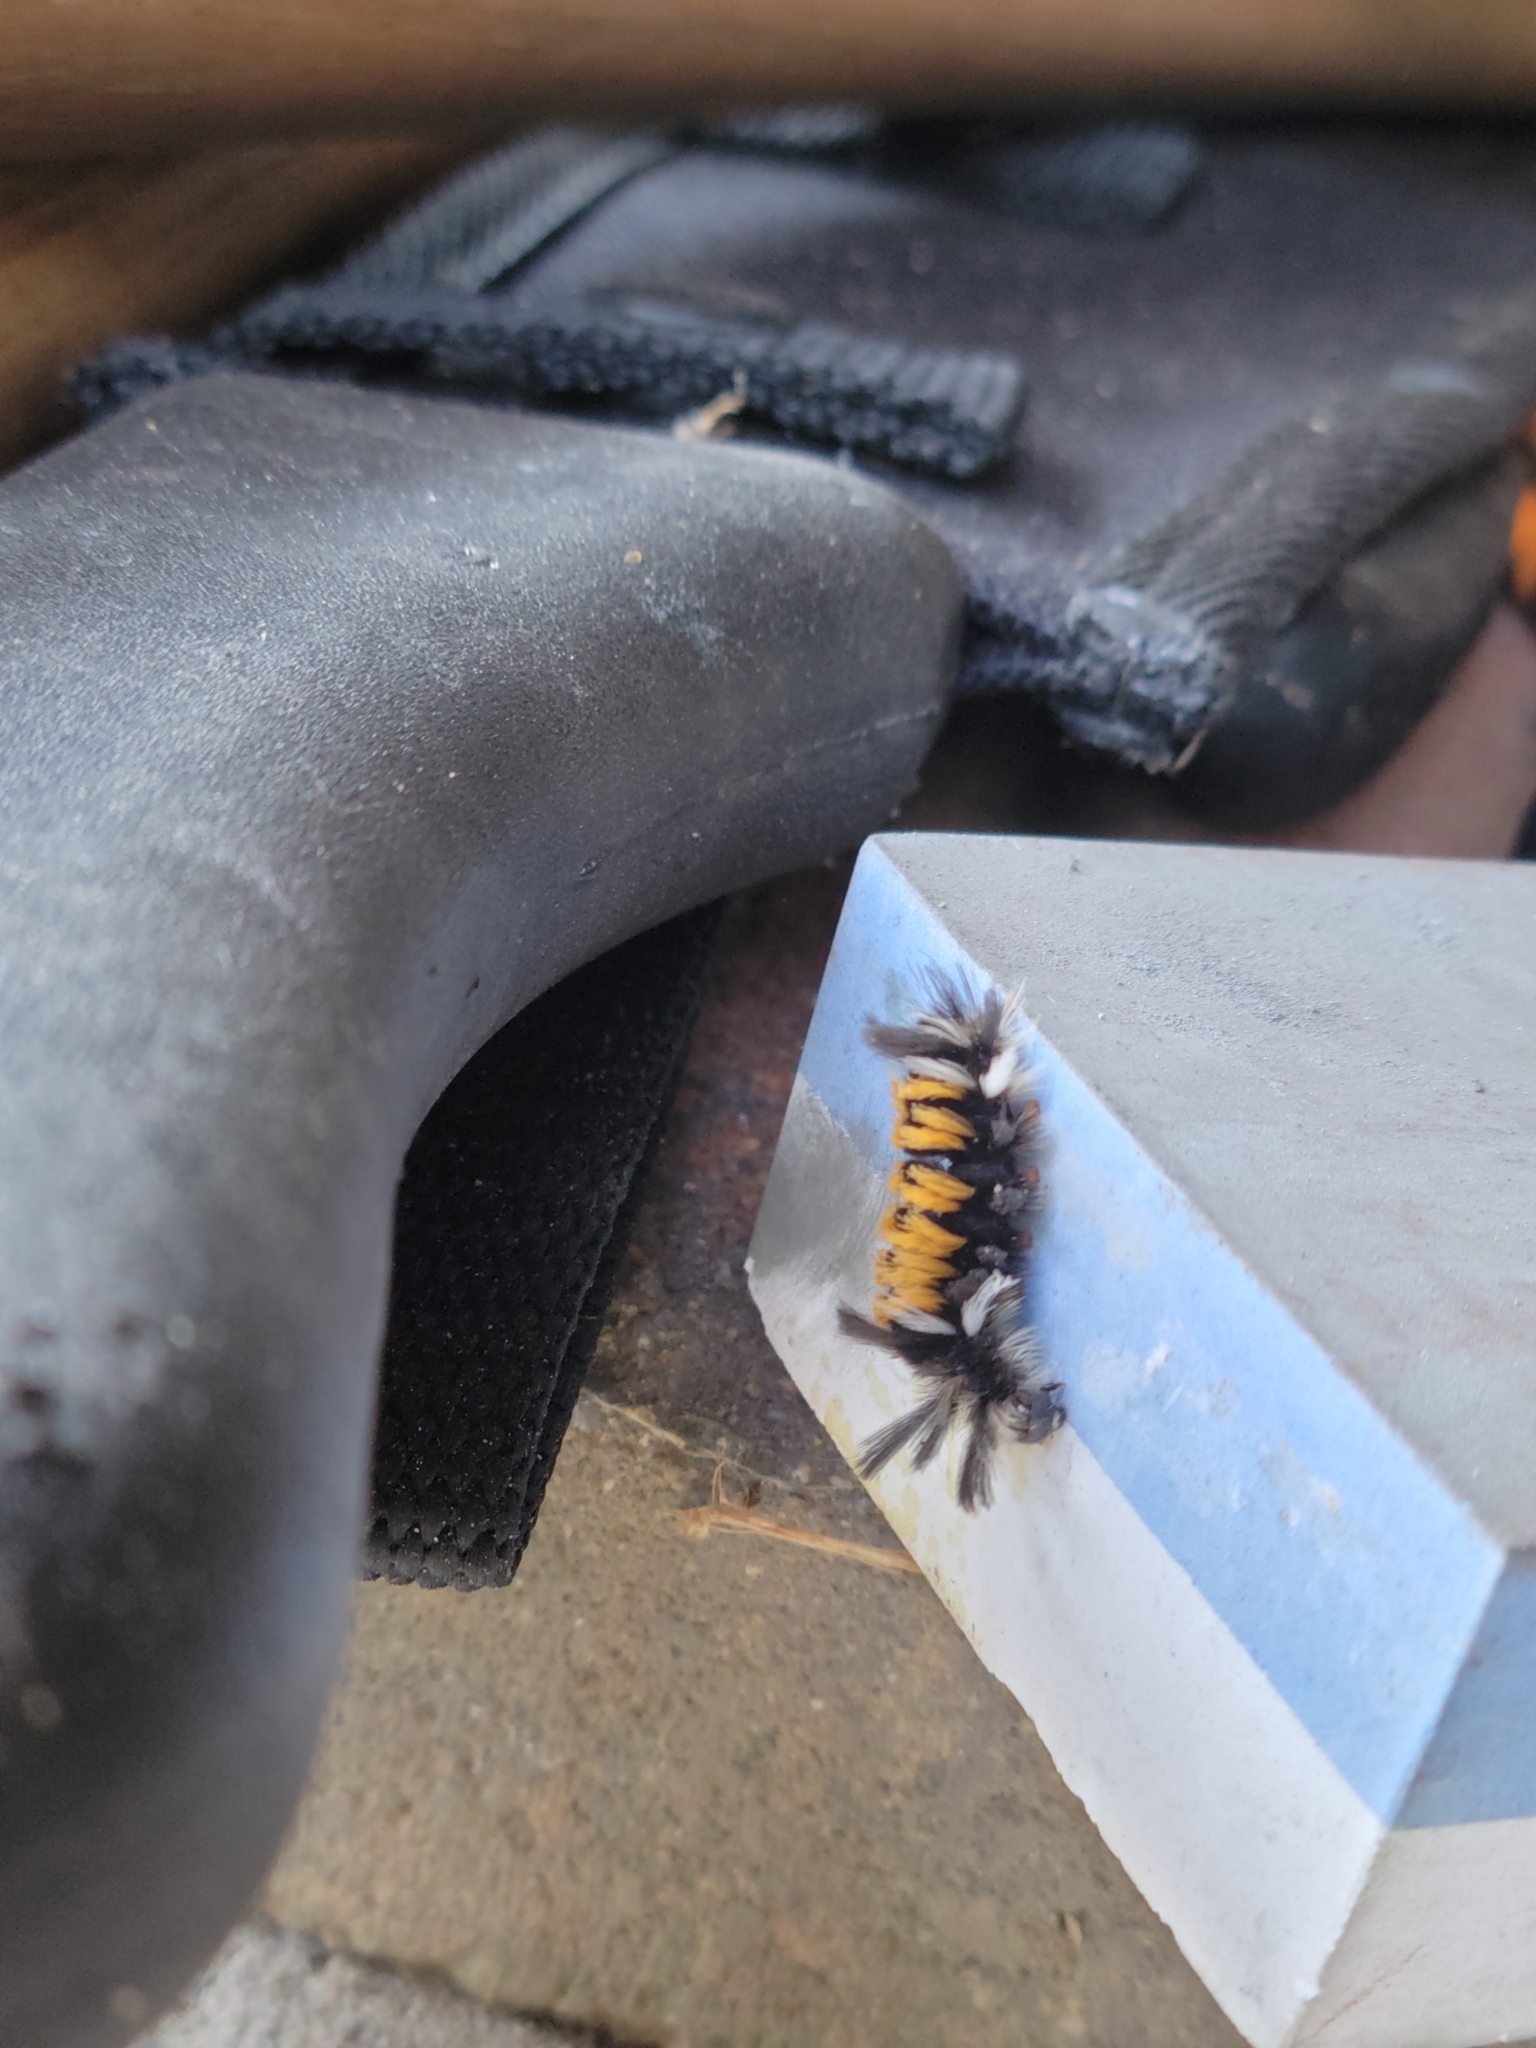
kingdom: Animalia
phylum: Arthropoda
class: Insecta
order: Lepidoptera
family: Erebidae
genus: Euchaetes
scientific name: Euchaetes egle
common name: Milkweed tussock moth
